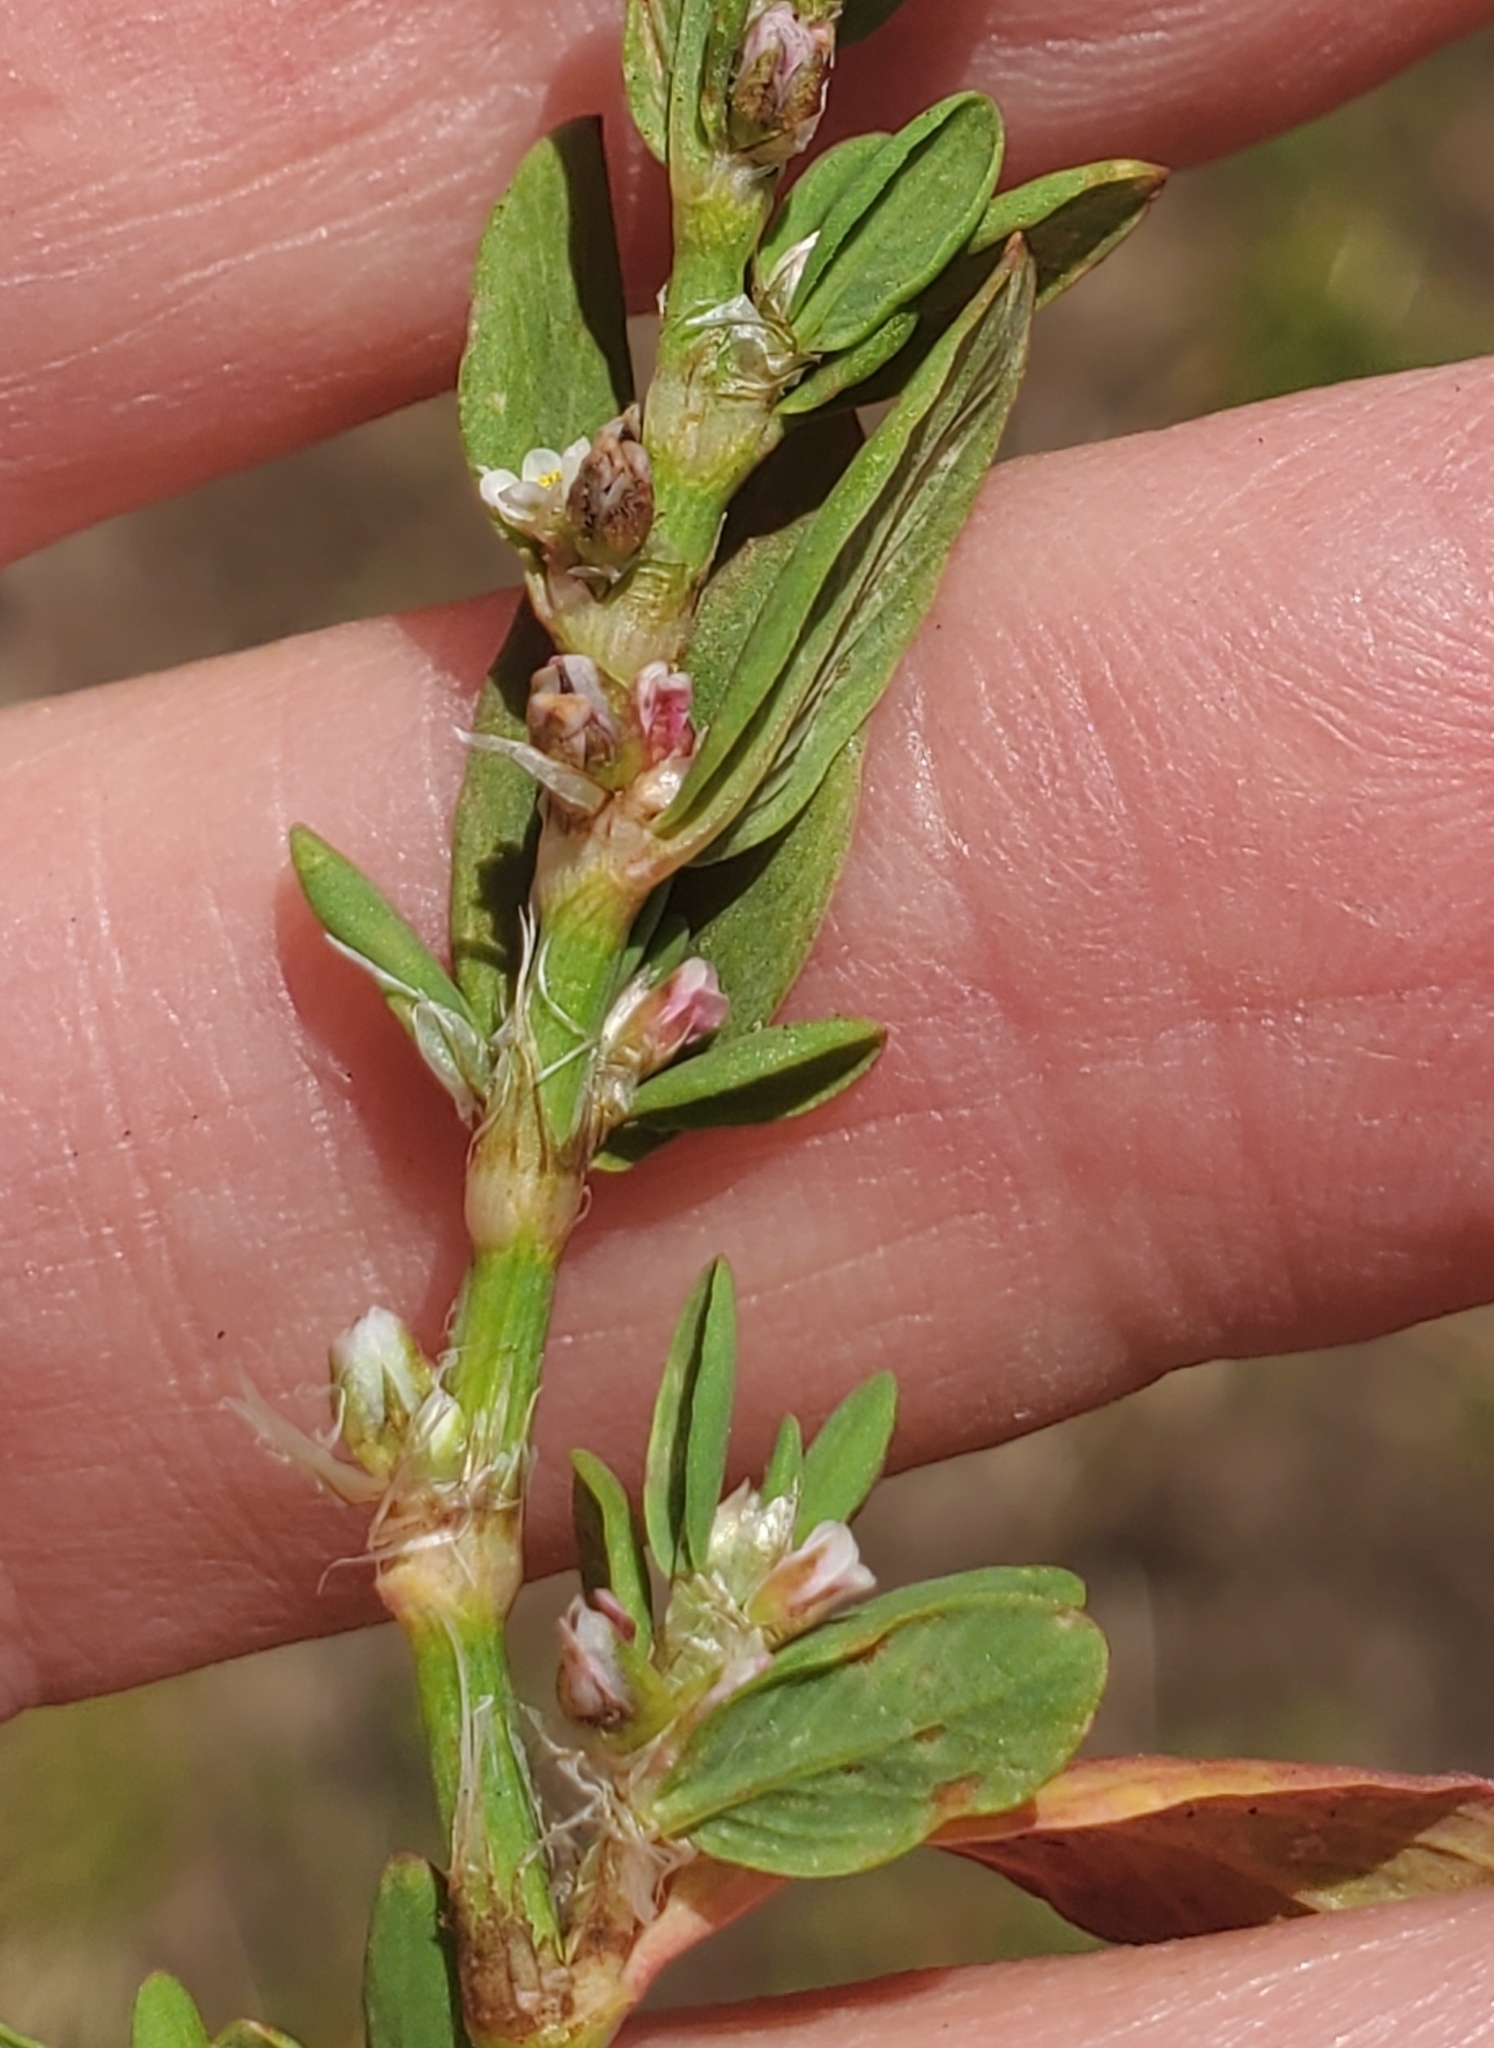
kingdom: Plantae
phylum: Tracheophyta
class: Magnoliopsida
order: Caryophyllales
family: Polygonaceae
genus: Polygonum
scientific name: Polygonum aviculare
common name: Prostrate knotweed
